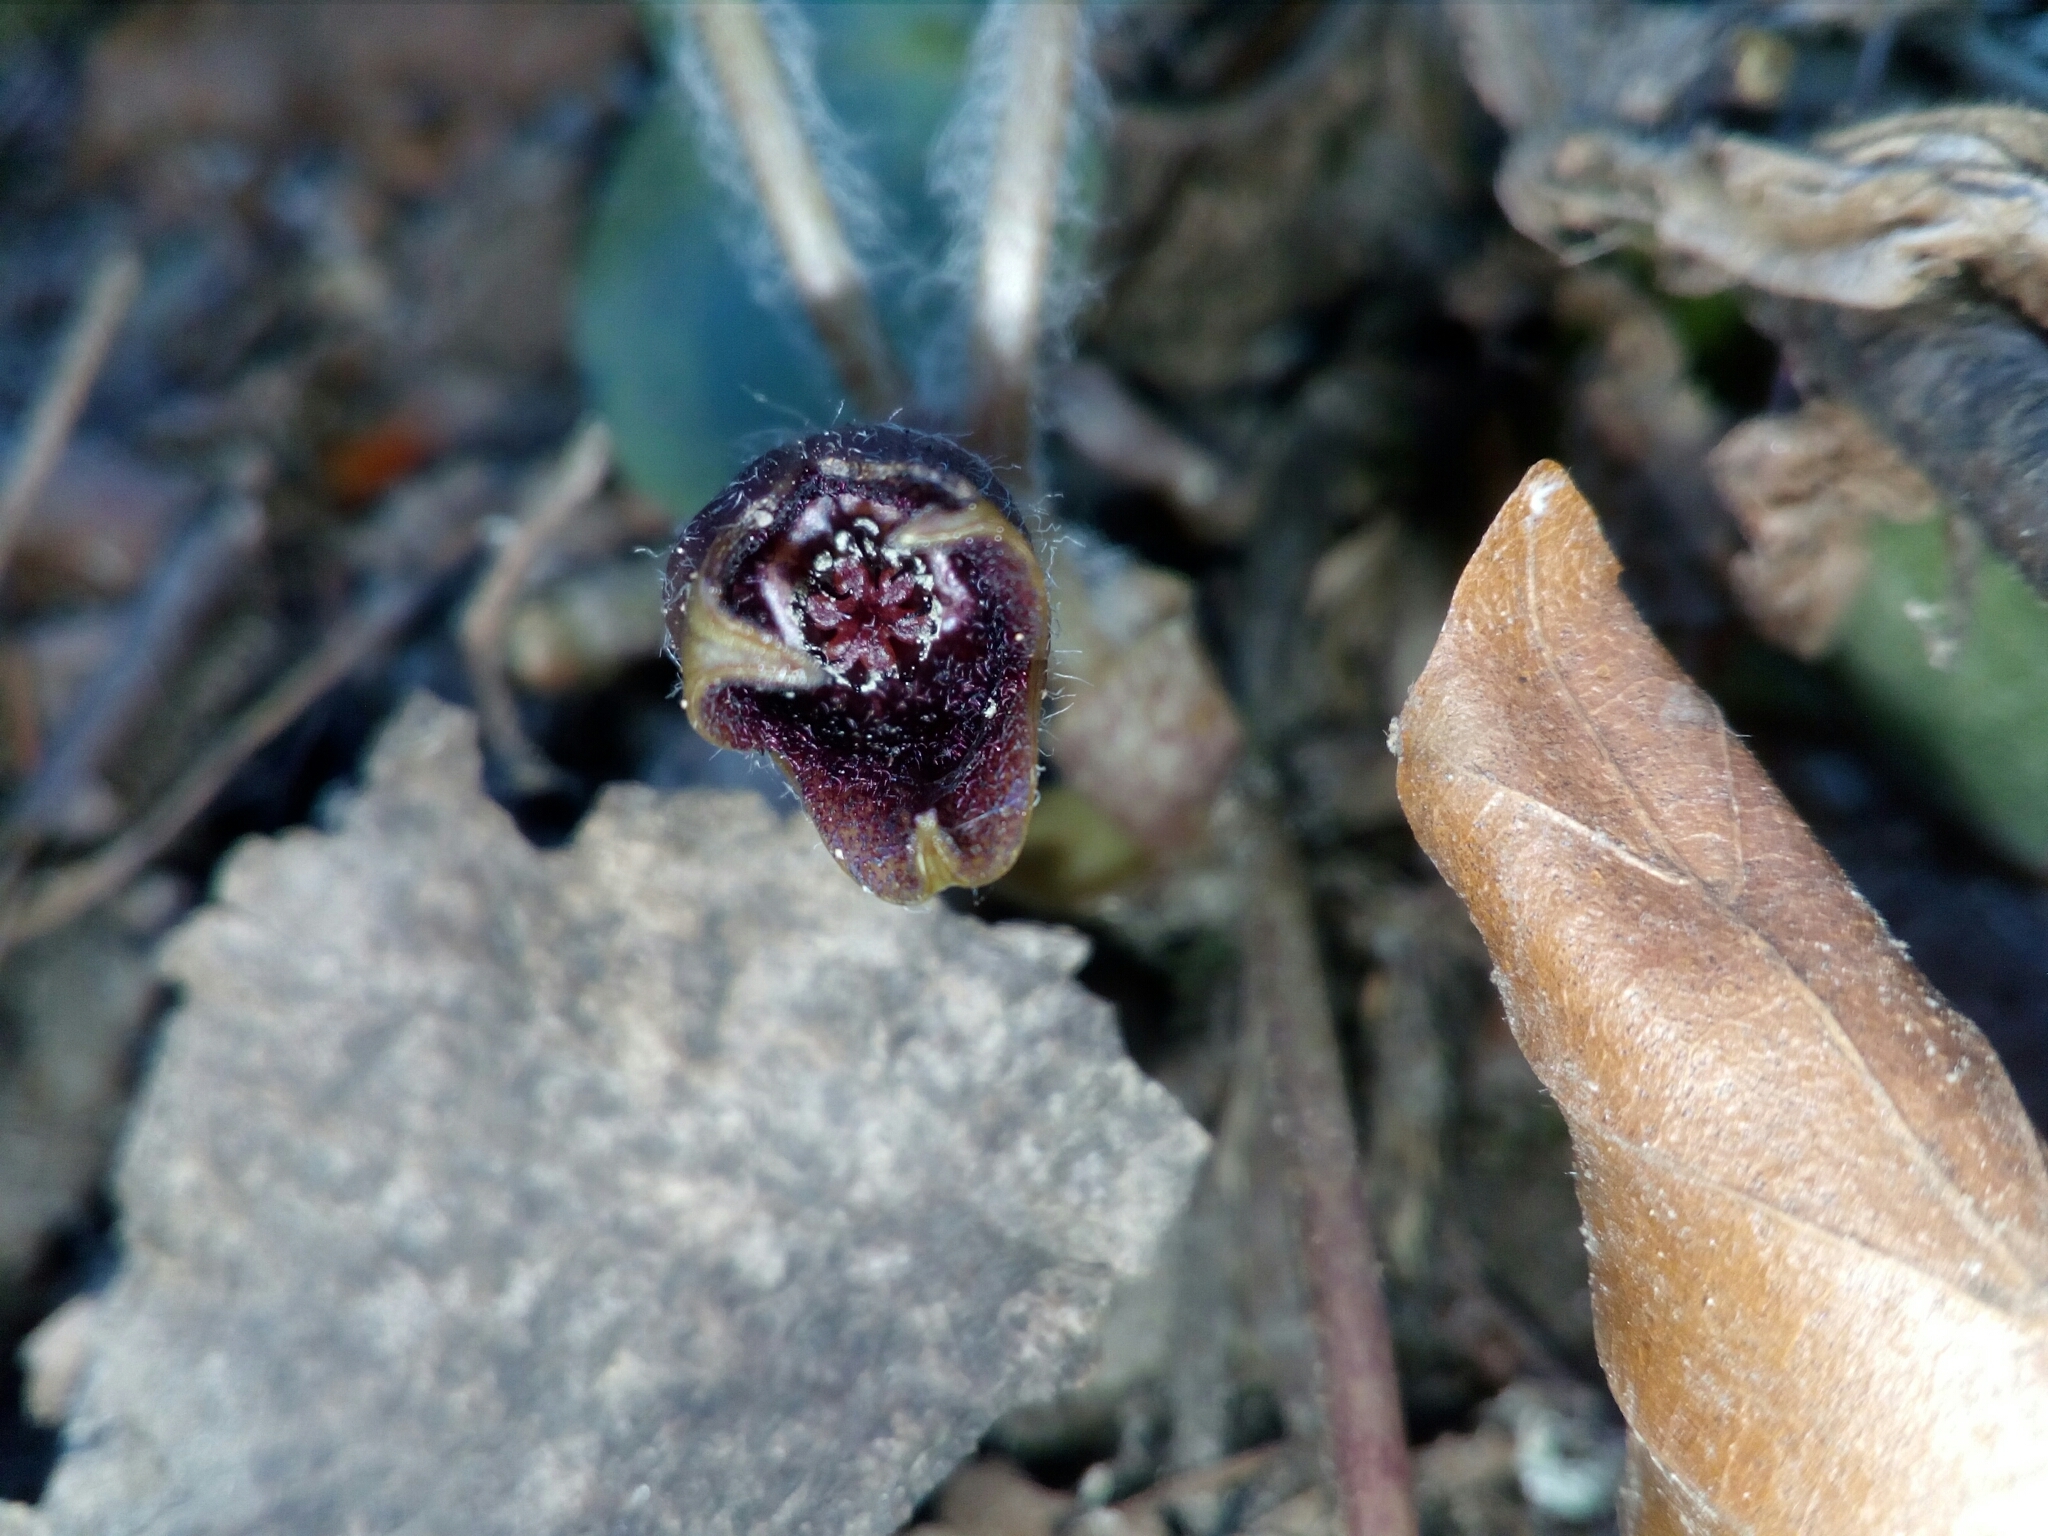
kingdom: Plantae
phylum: Tracheophyta
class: Magnoliopsida
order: Piperales
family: Aristolochiaceae
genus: Asarum
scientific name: Asarum europaeum
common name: Asarabacca
